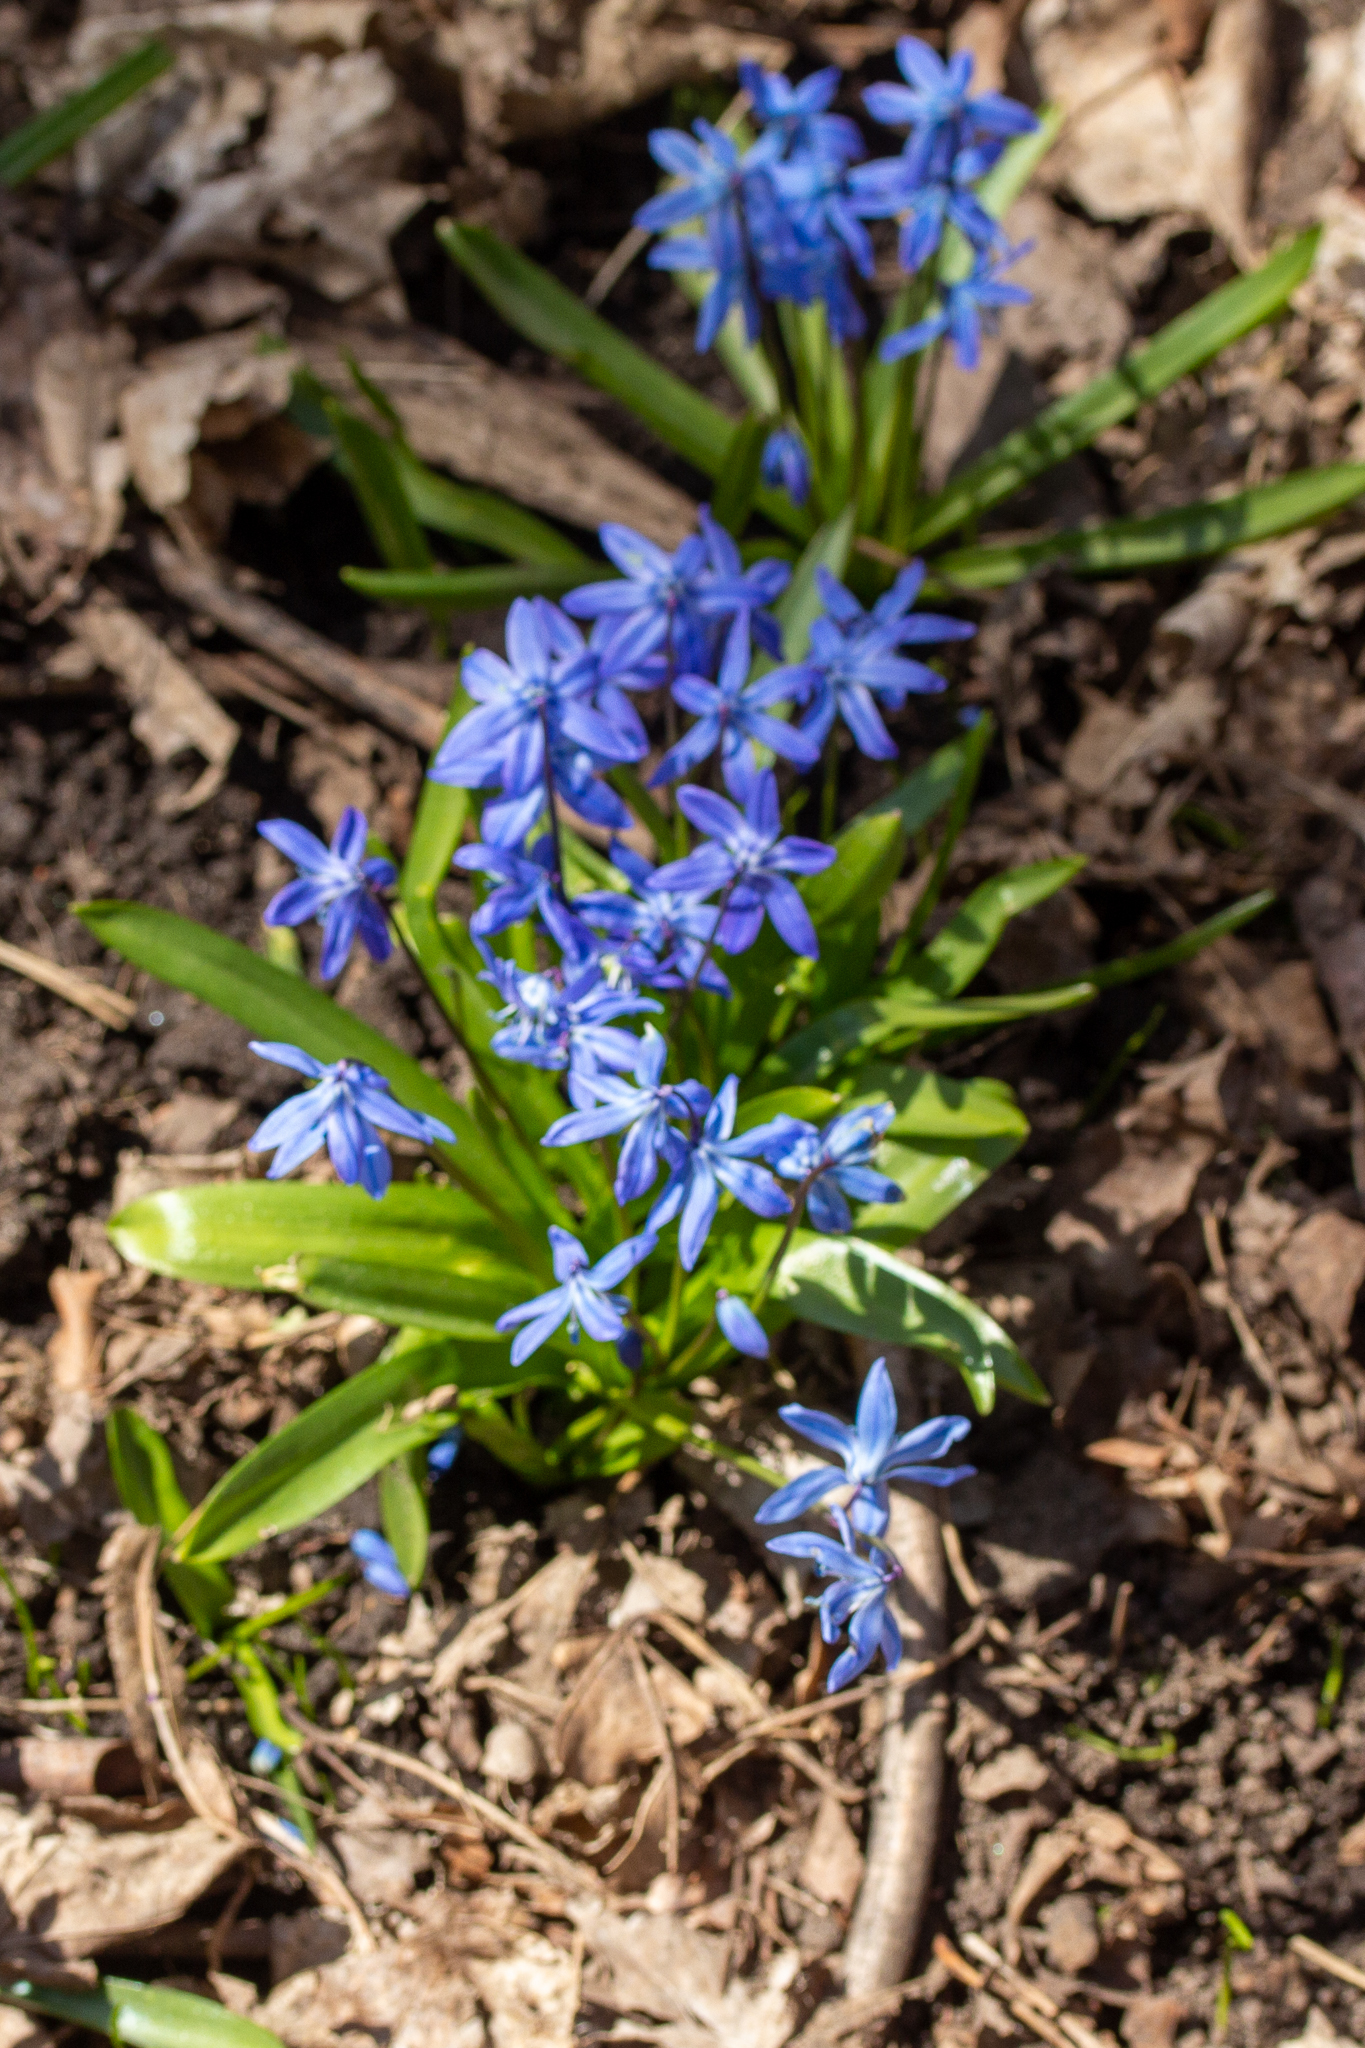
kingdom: Plantae
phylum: Tracheophyta
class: Liliopsida
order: Asparagales
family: Asparagaceae
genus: Scilla
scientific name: Scilla siberica
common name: Siberian squill
